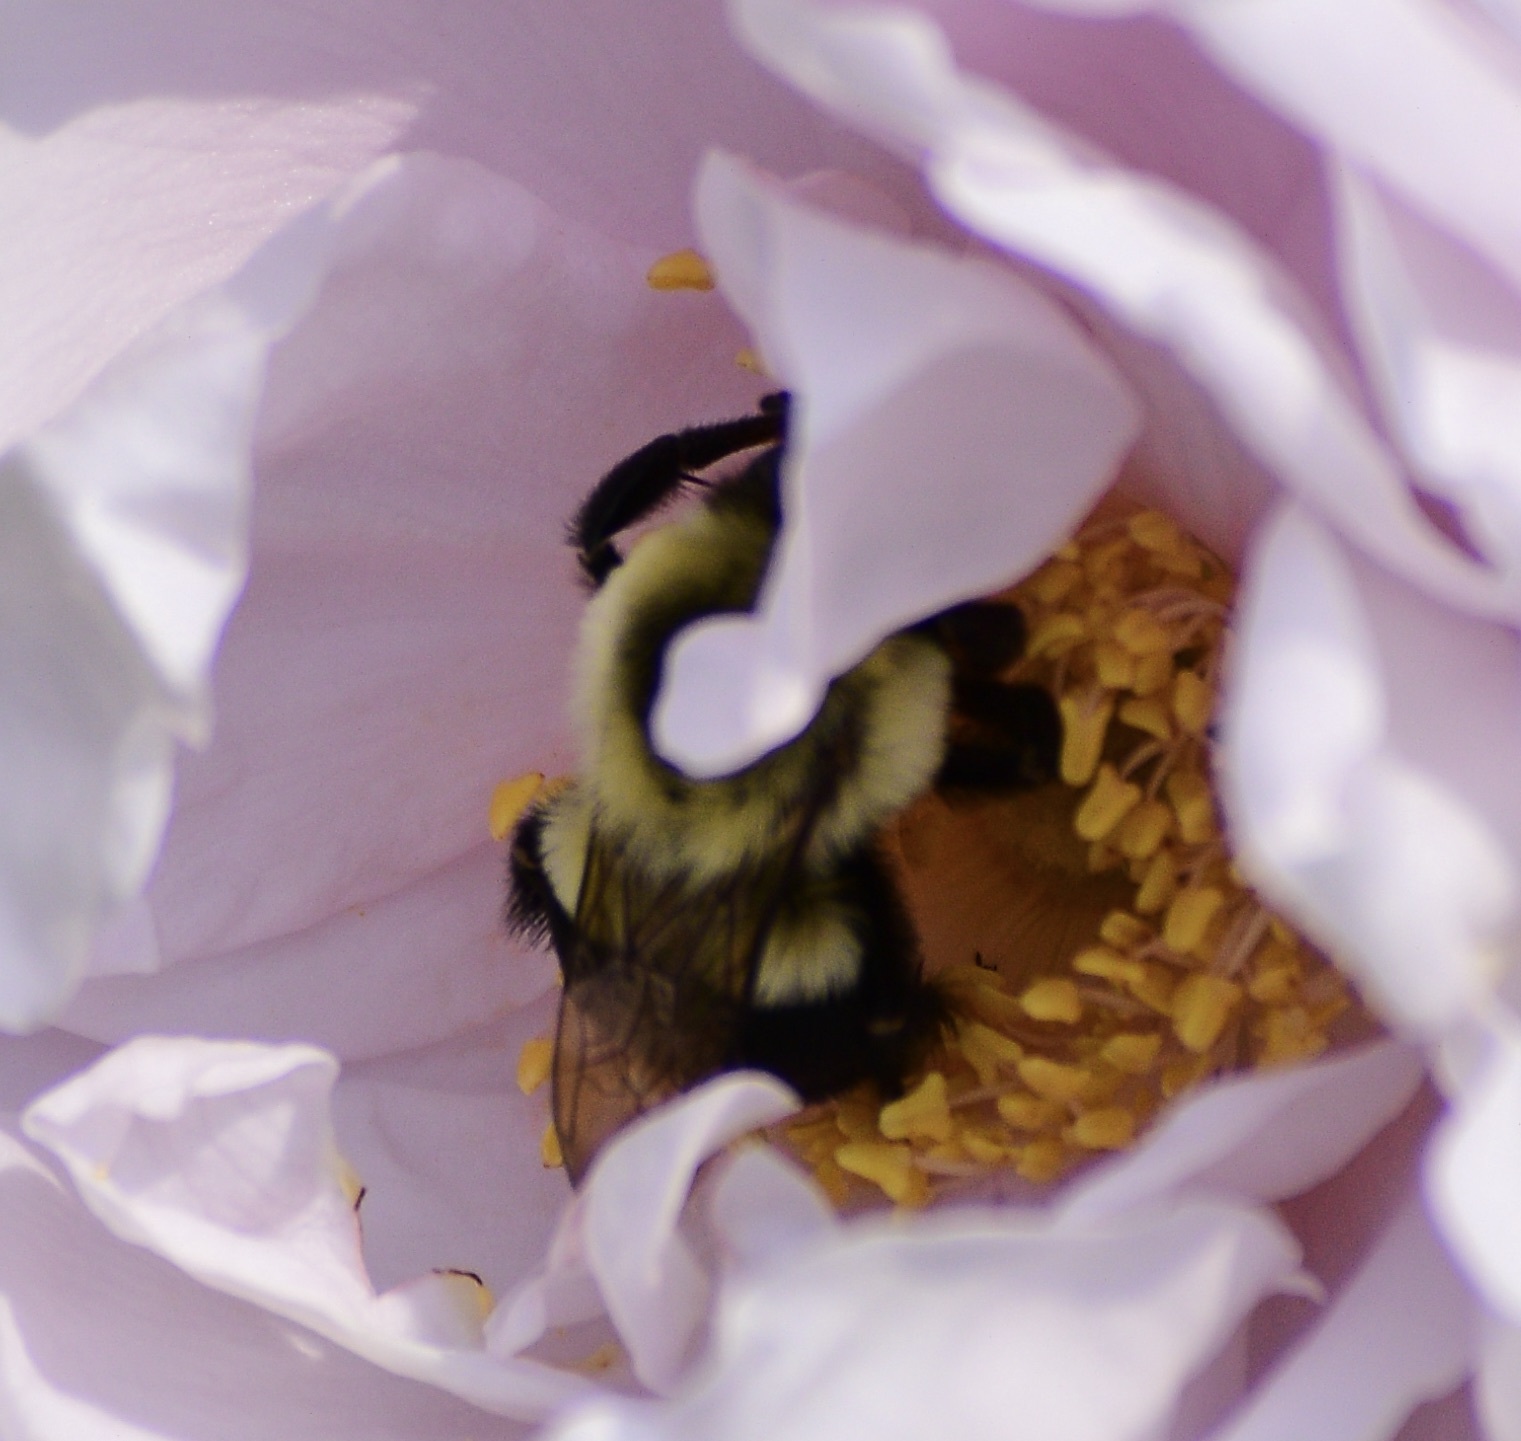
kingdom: Animalia
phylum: Arthropoda
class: Insecta
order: Hymenoptera
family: Apidae
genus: Bombus
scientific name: Bombus impatiens
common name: Common eastern bumble bee
